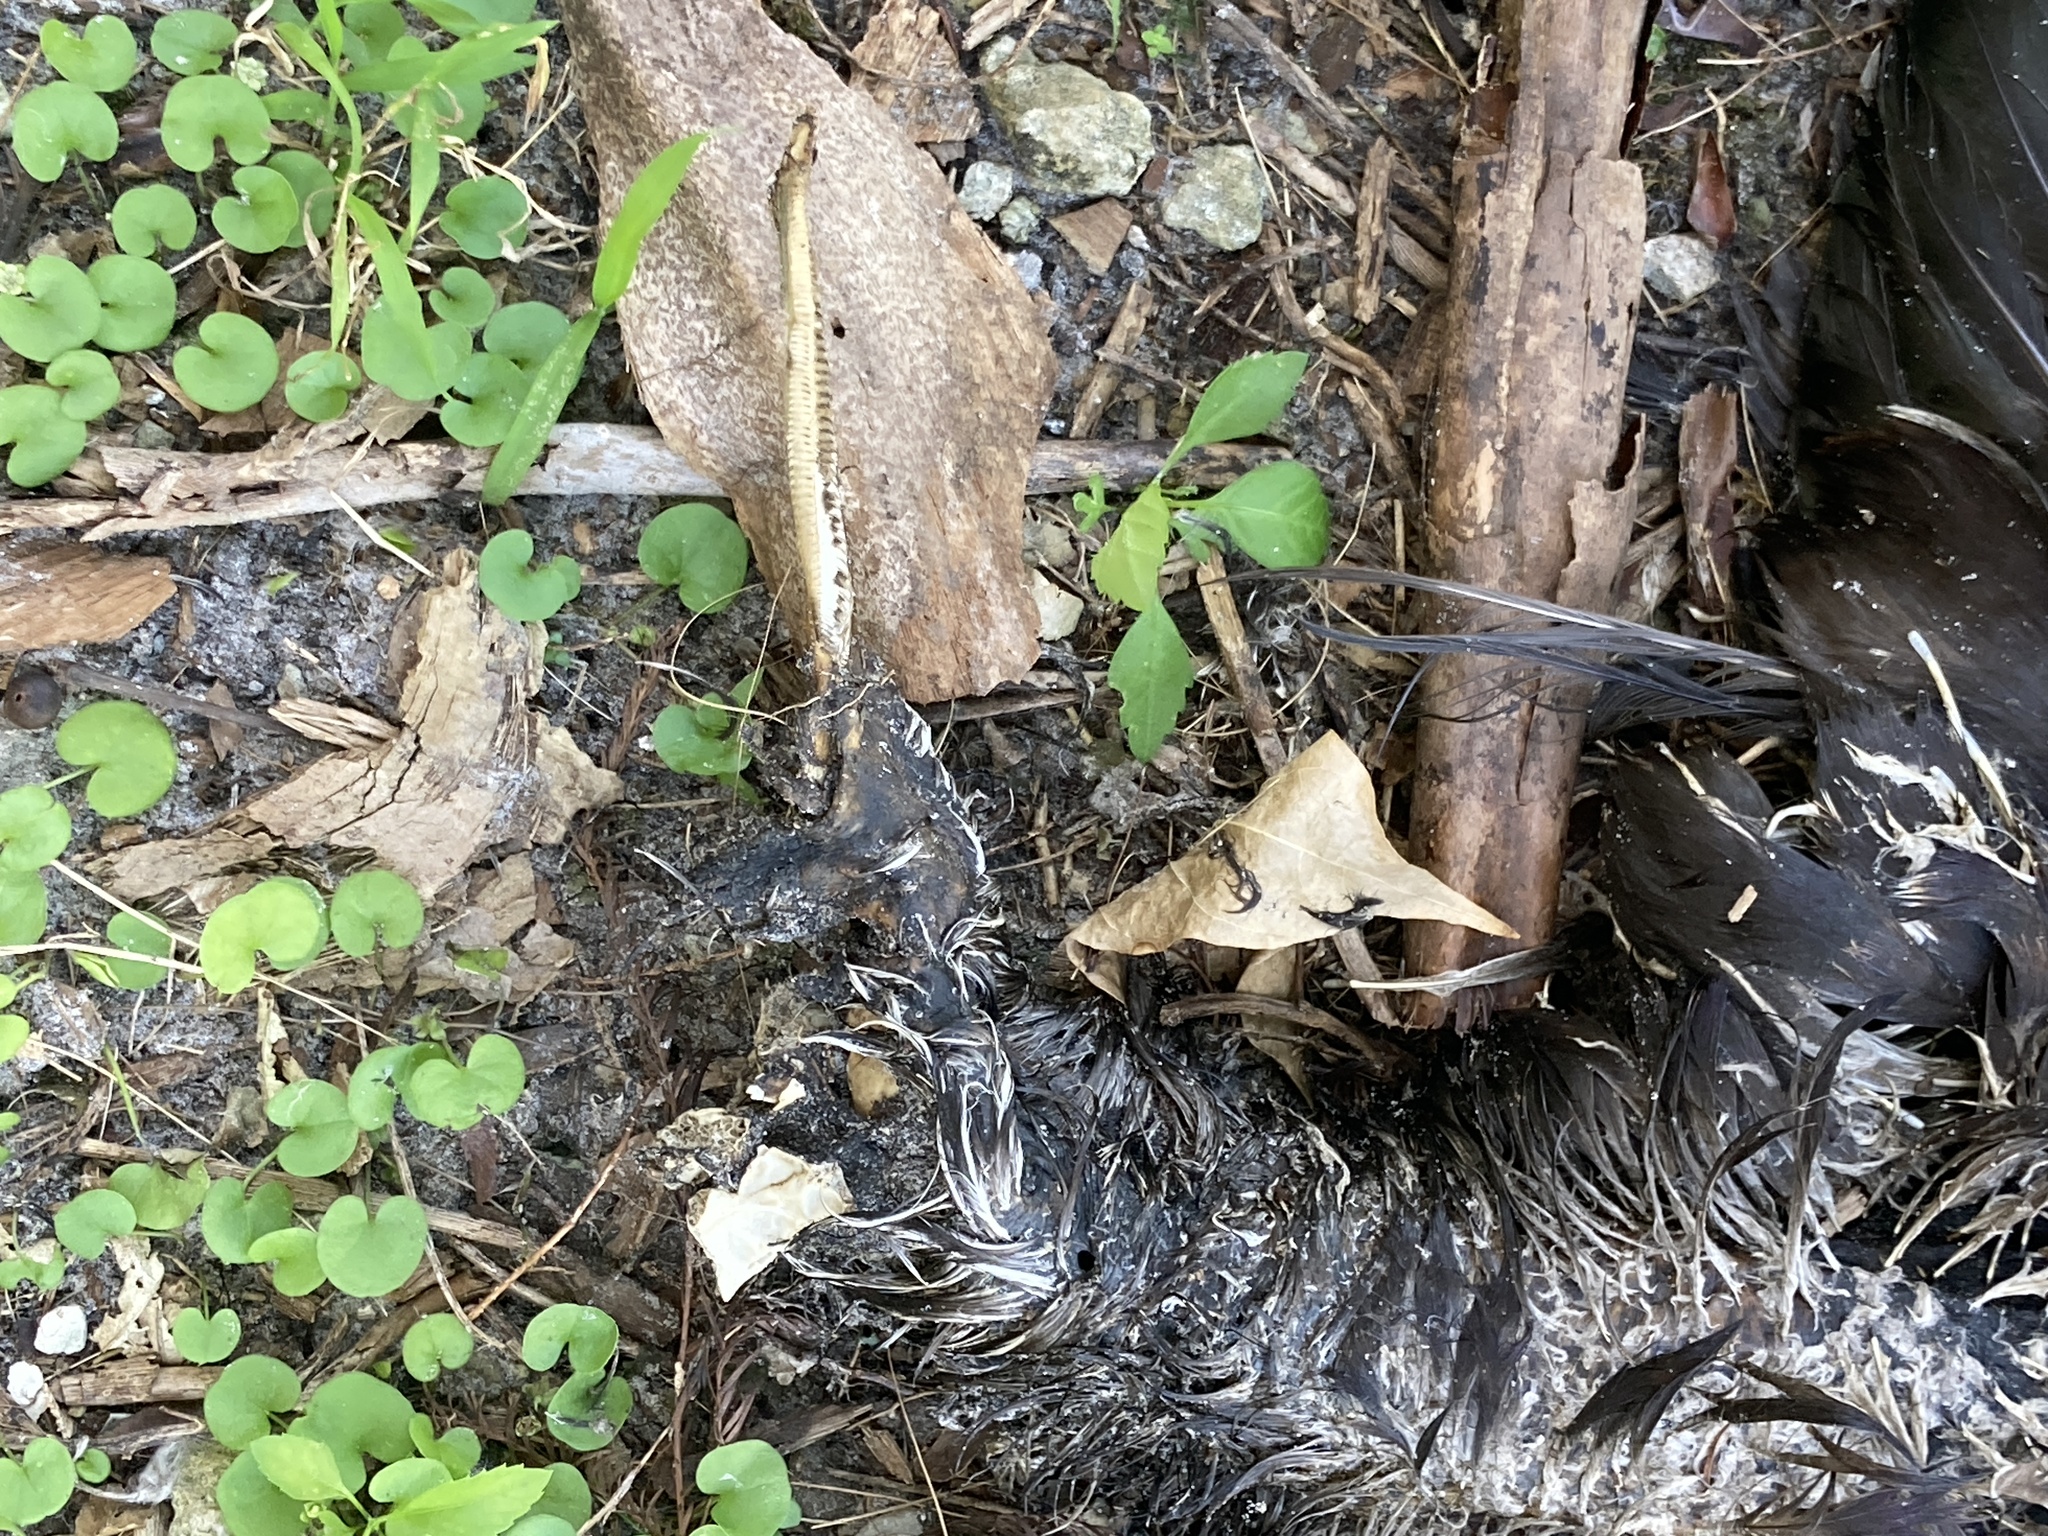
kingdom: Animalia
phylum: Chordata
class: Aves
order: Anseriformes
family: Anatidae
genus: Cairina
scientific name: Cairina moschata
